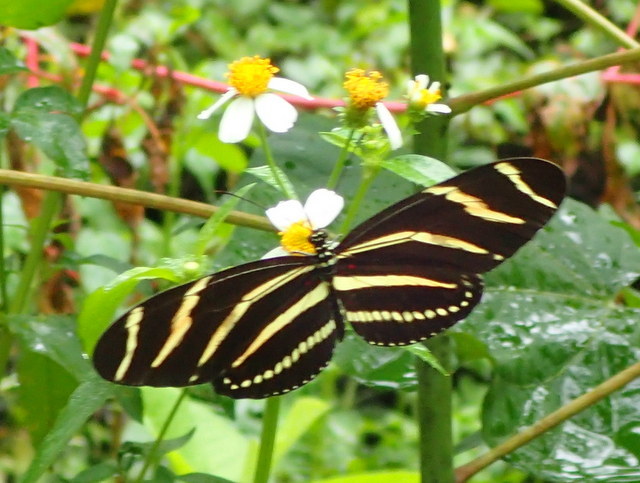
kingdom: Animalia
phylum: Arthropoda
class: Insecta
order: Lepidoptera
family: Nymphalidae
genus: Heliconius
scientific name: Heliconius charithonia
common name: Zebra long wing
